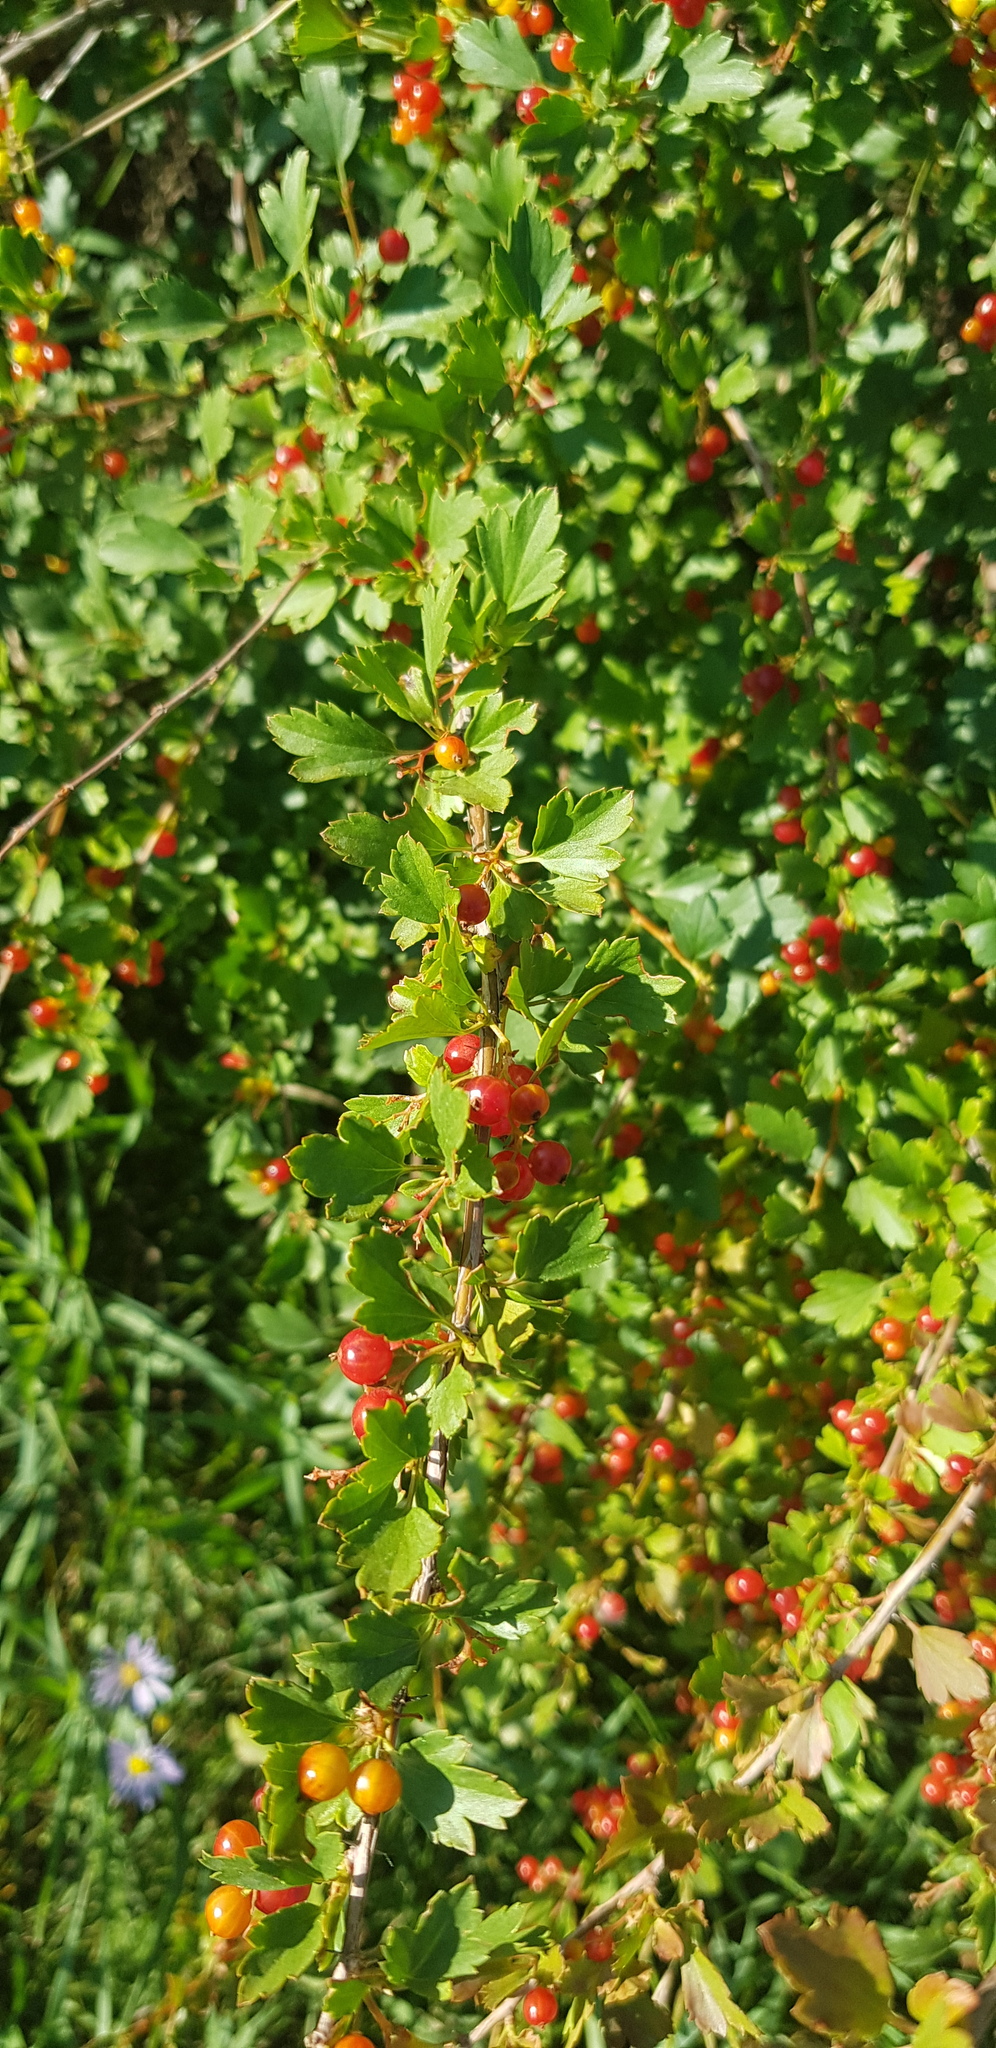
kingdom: Plantae
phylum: Tracheophyta
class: Magnoliopsida
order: Saxifragales
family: Grossulariaceae
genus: Ribes
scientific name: Ribes diacanthum
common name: Siberian currant
